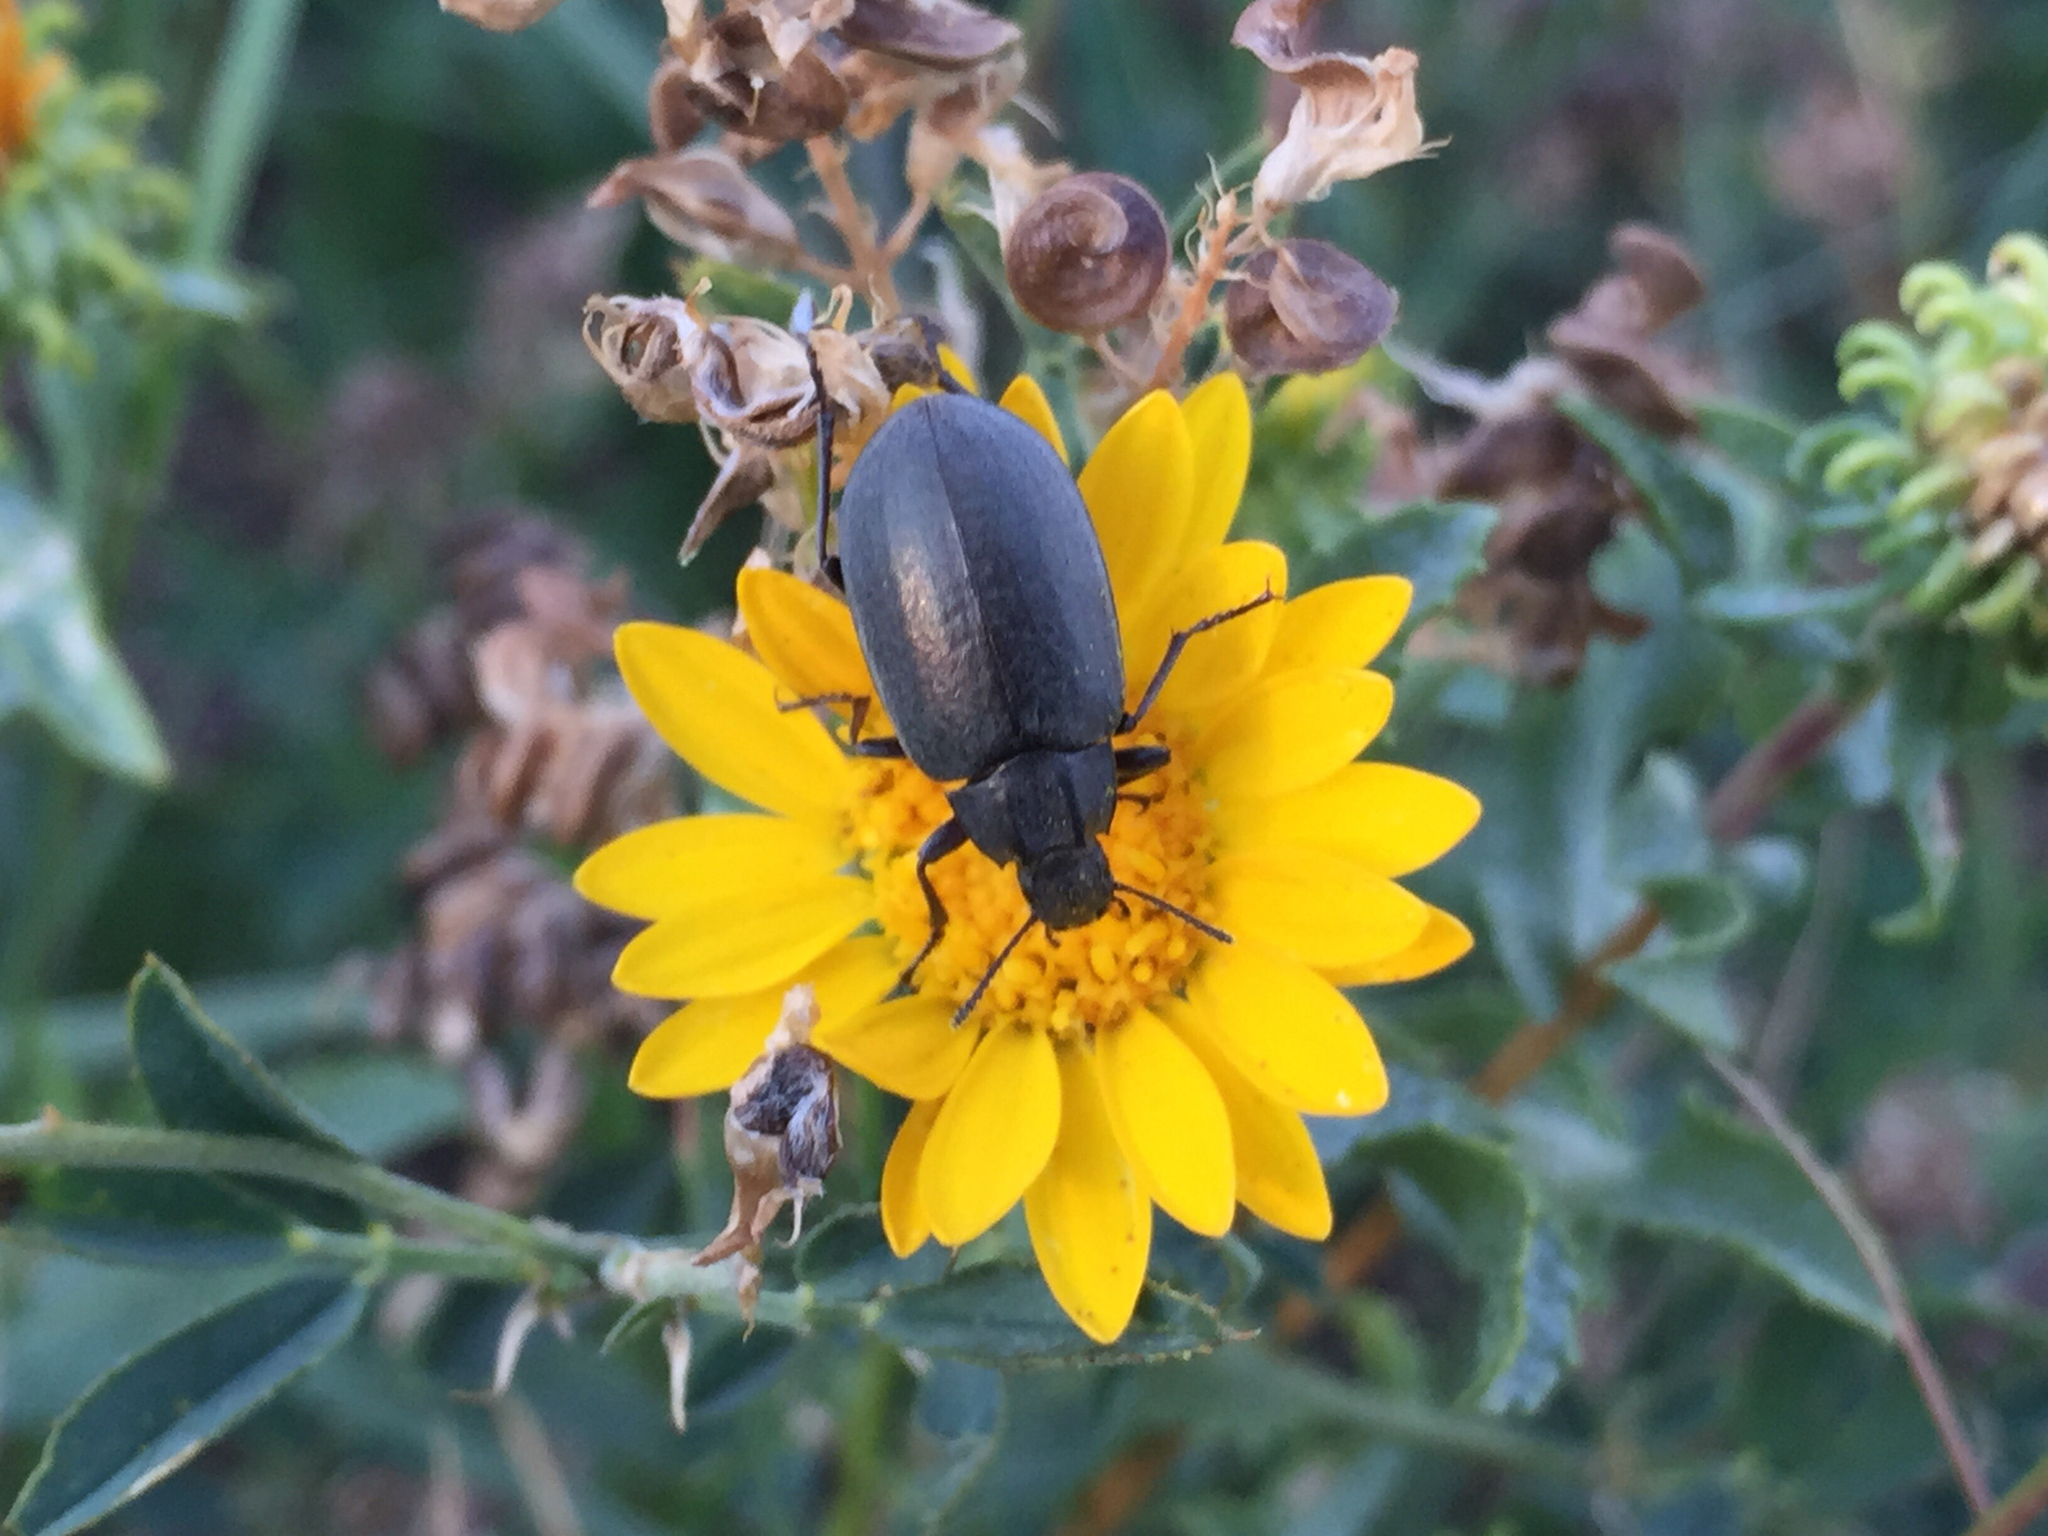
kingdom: Animalia
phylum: Arthropoda
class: Insecta
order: Coleoptera
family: Tenebrionidae
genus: Bothrotes
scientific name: Bothrotes canaliculatus
